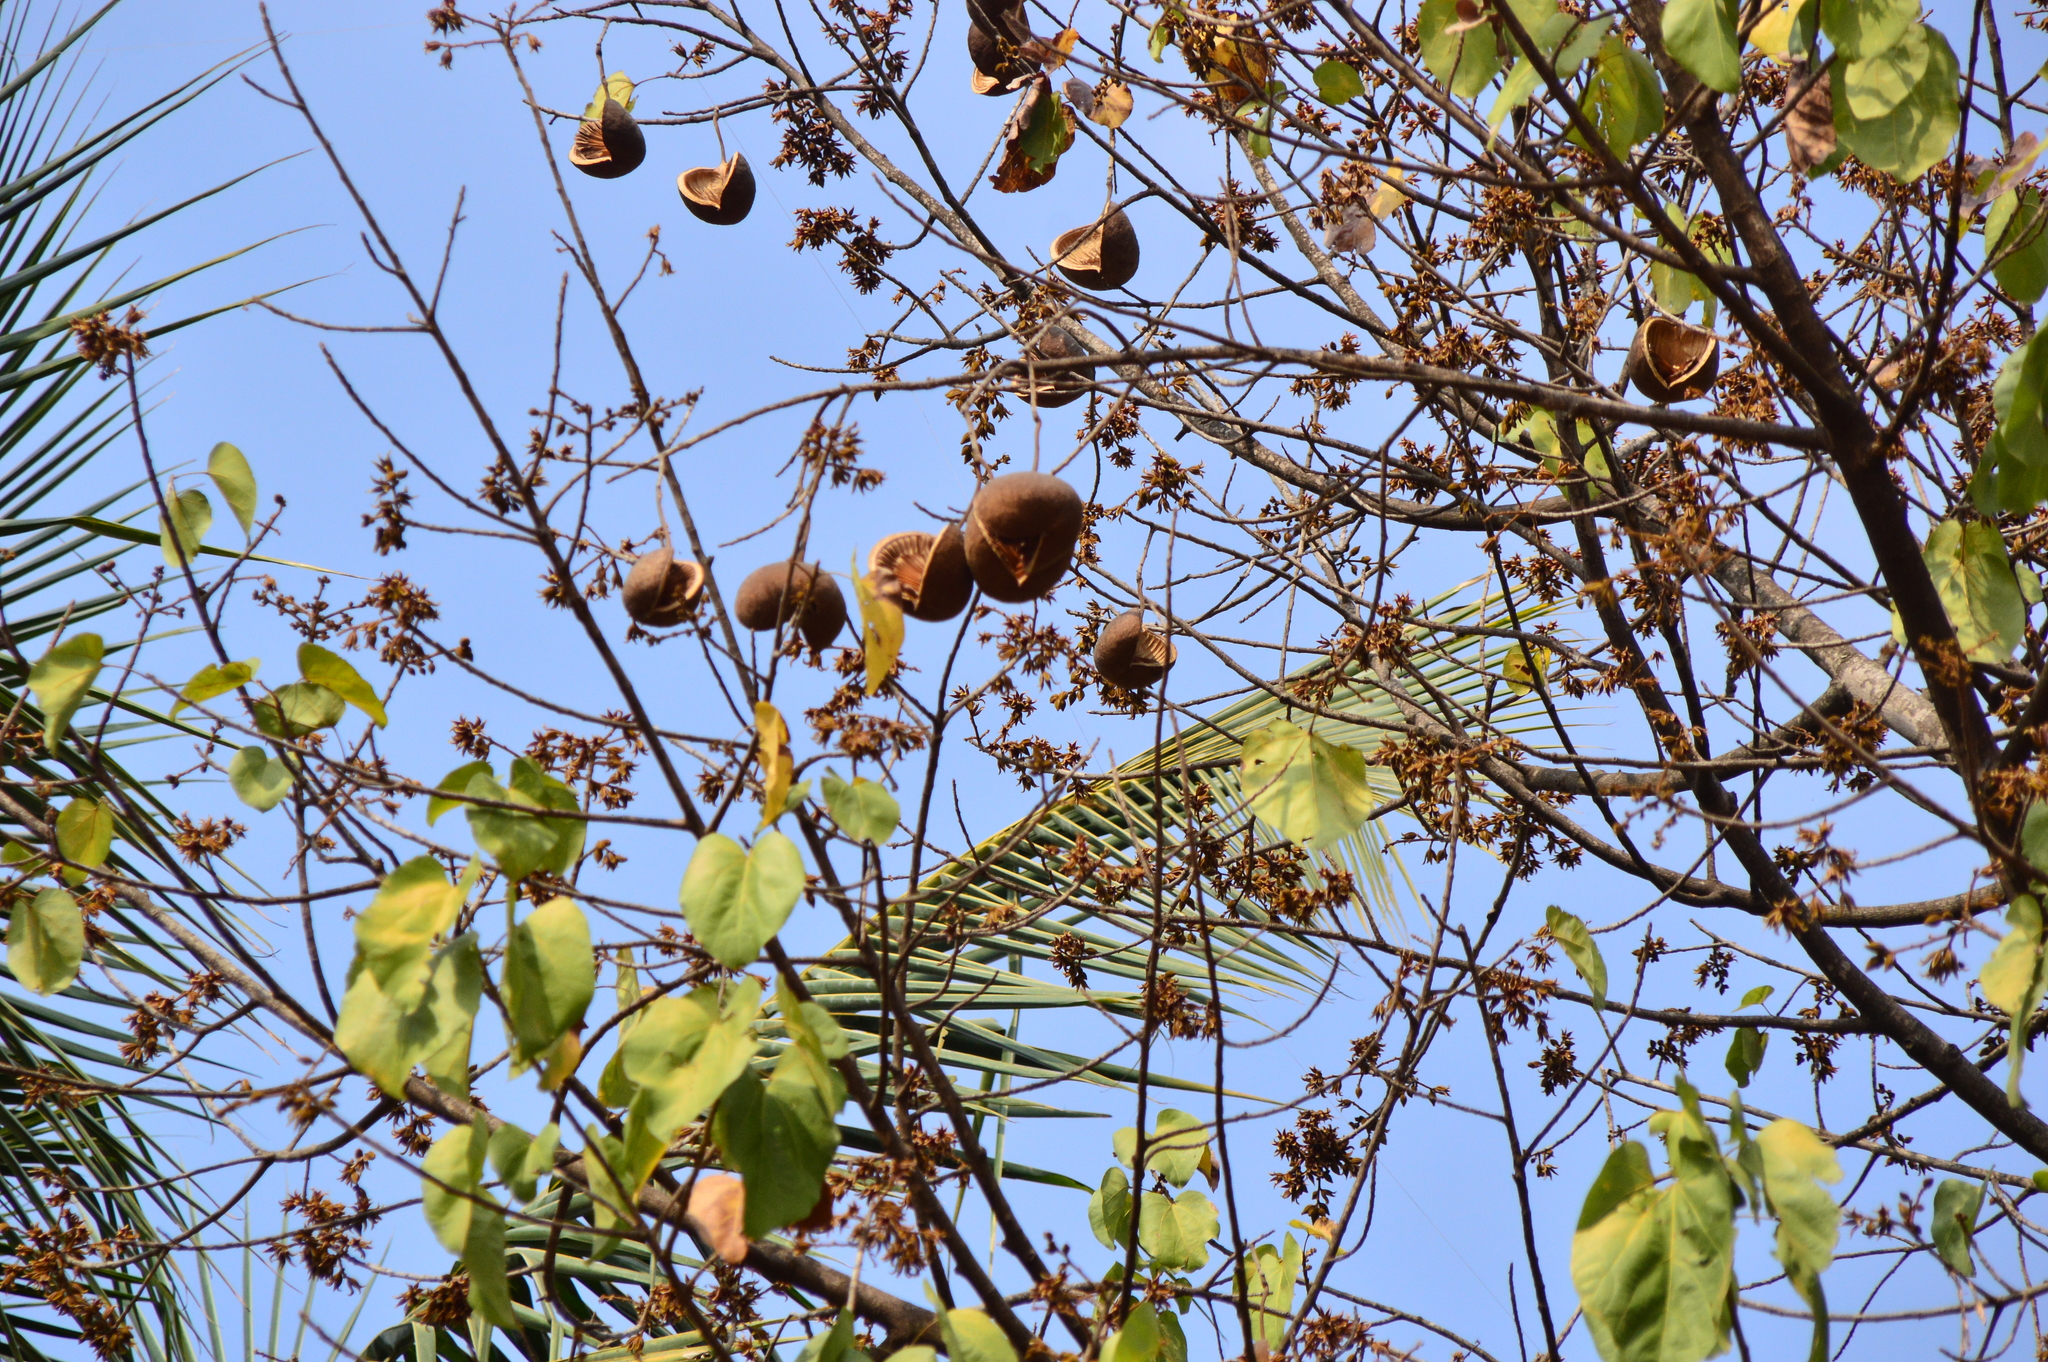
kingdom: Plantae
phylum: Tracheophyta
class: Magnoliopsida
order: Malvales
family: Malvaceae
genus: Pterygota
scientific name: Pterygota alata
